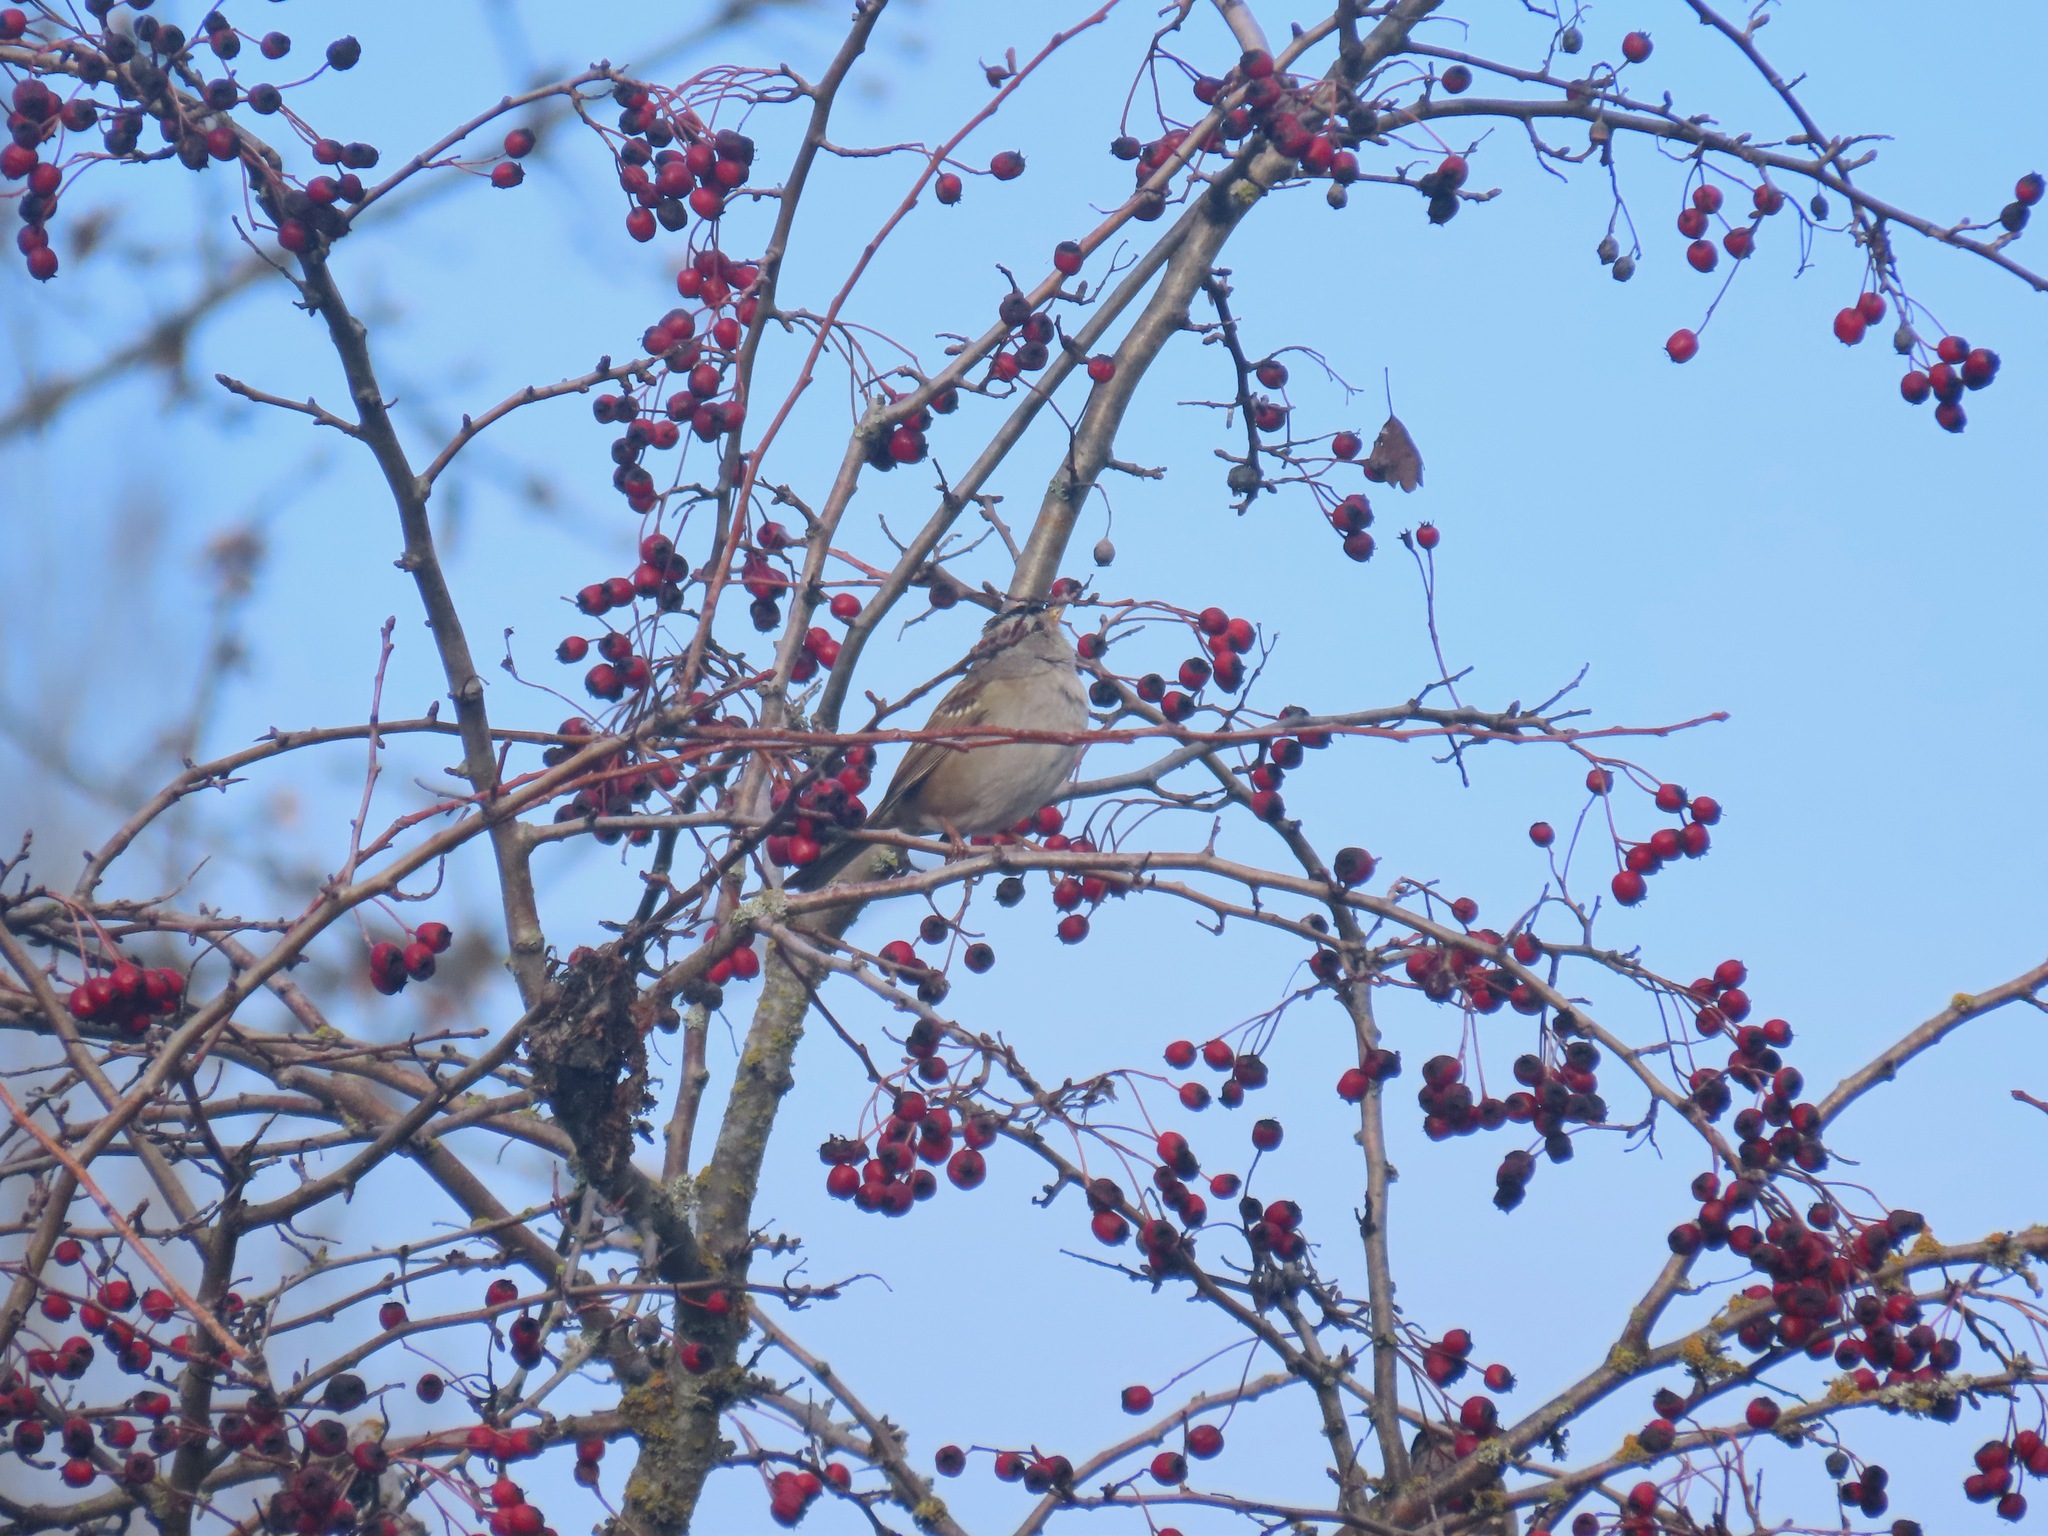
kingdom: Animalia
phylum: Chordata
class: Aves
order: Passeriformes
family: Passerellidae
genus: Zonotrichia
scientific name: Zonotrichia leucophrys
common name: White-crowned sparrow
